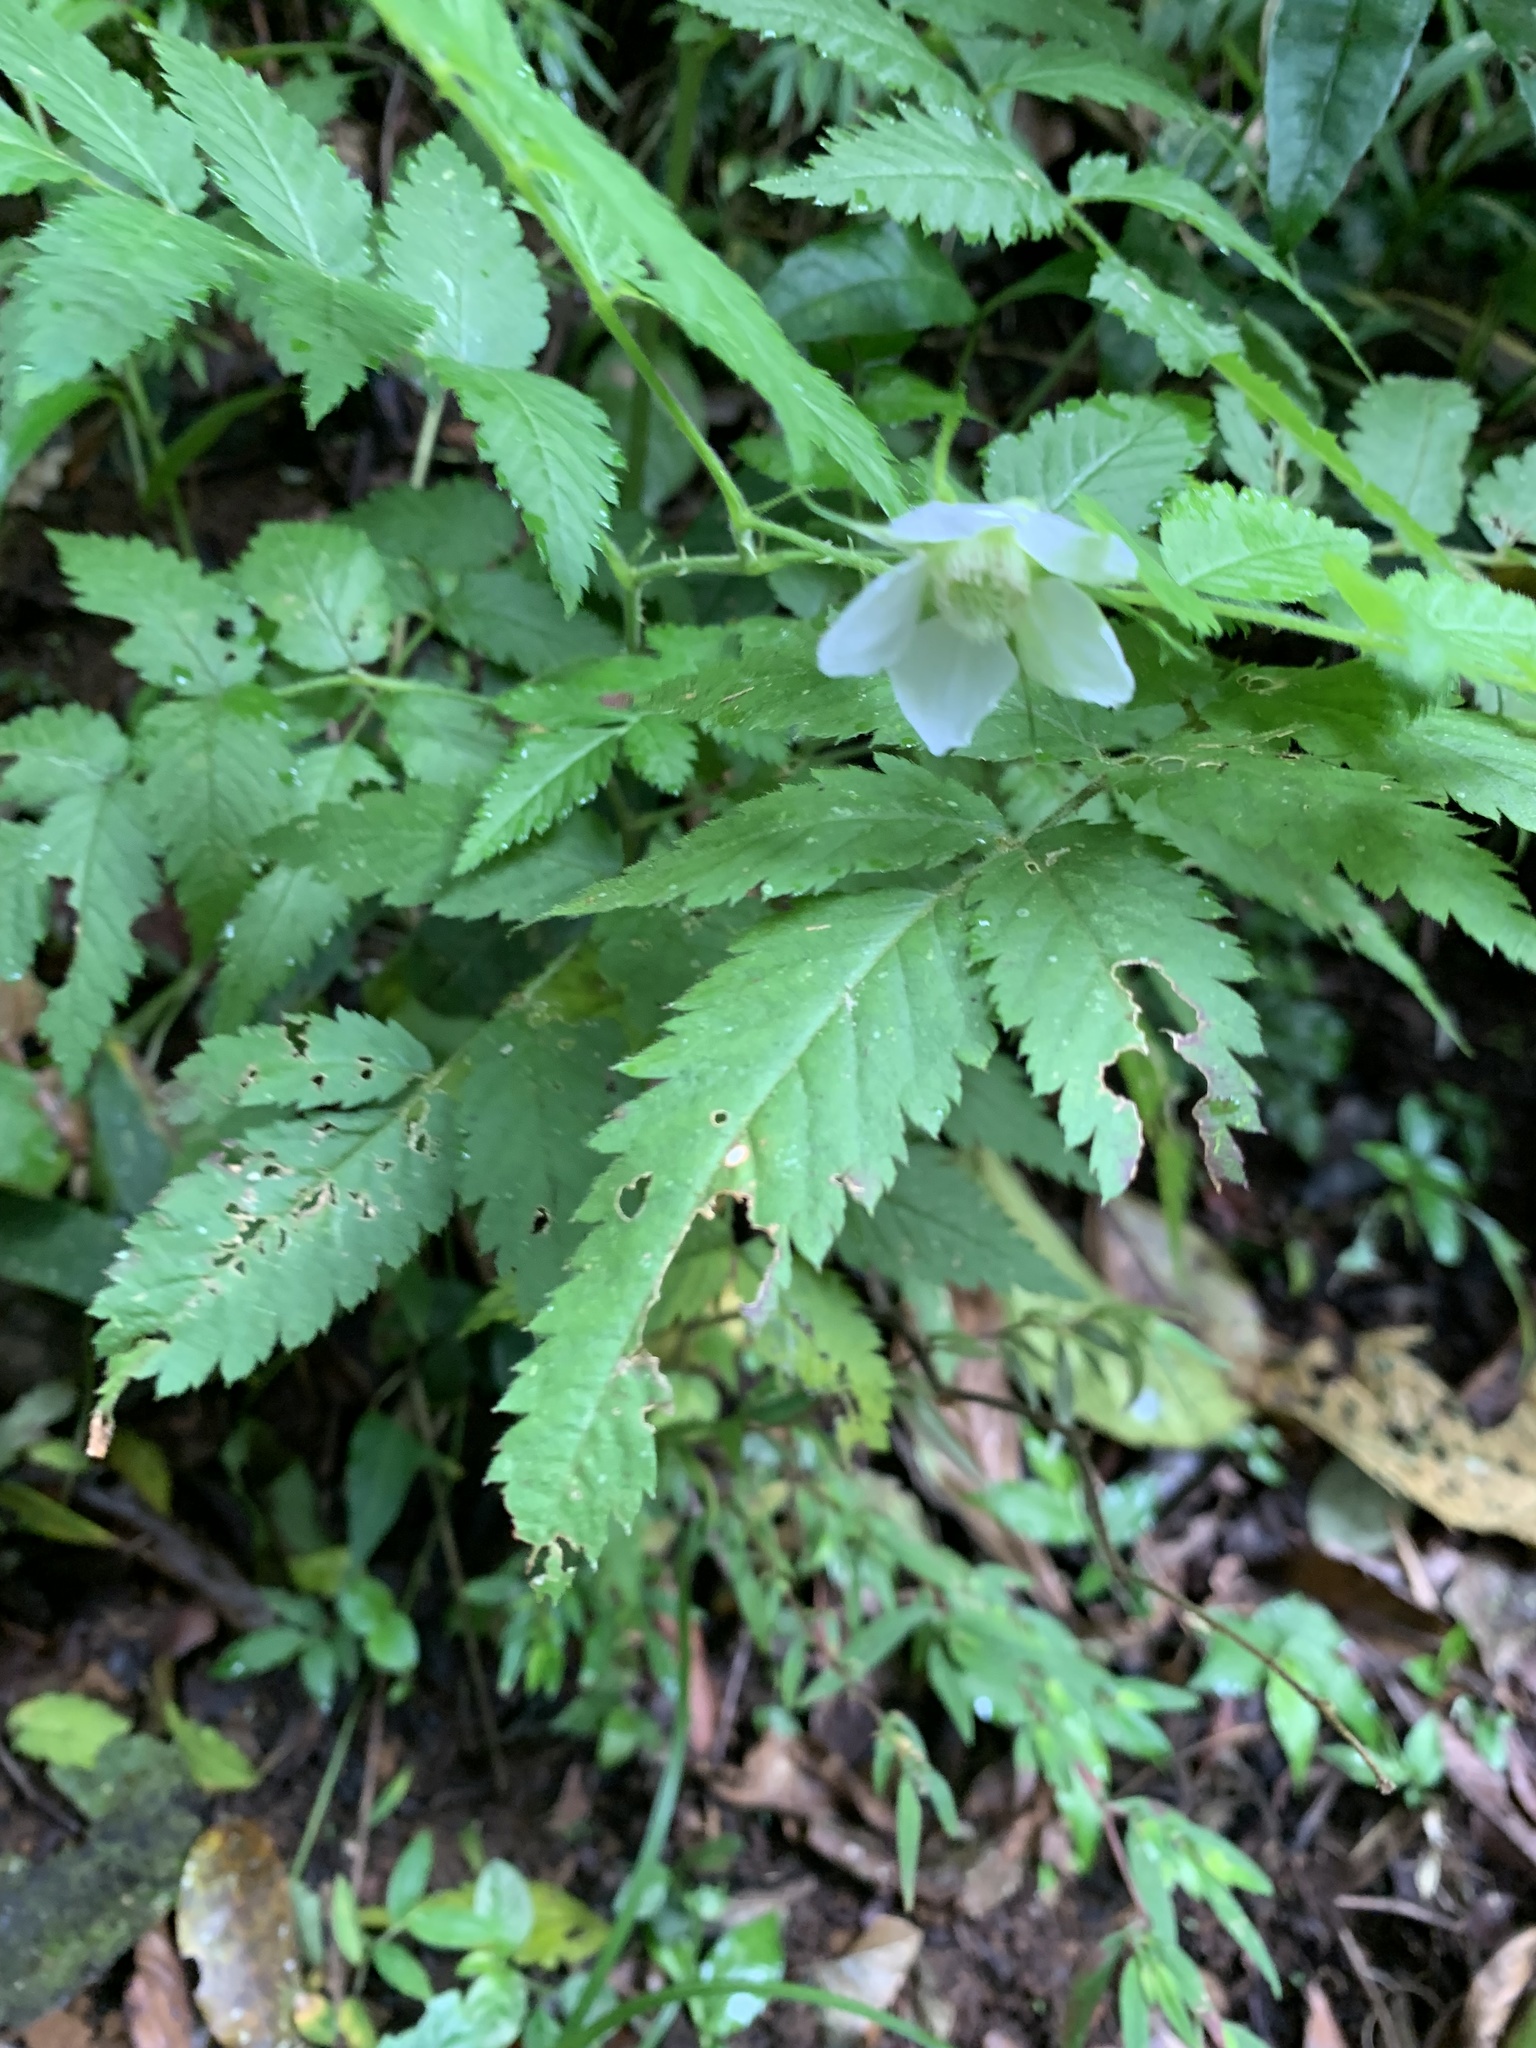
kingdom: Plantae
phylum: Tracheophyta
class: Magnoliopsida
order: Rosales
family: Rosaceae
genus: Rubus
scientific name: Rubus rosifolius
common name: Roseleaf raspberry
